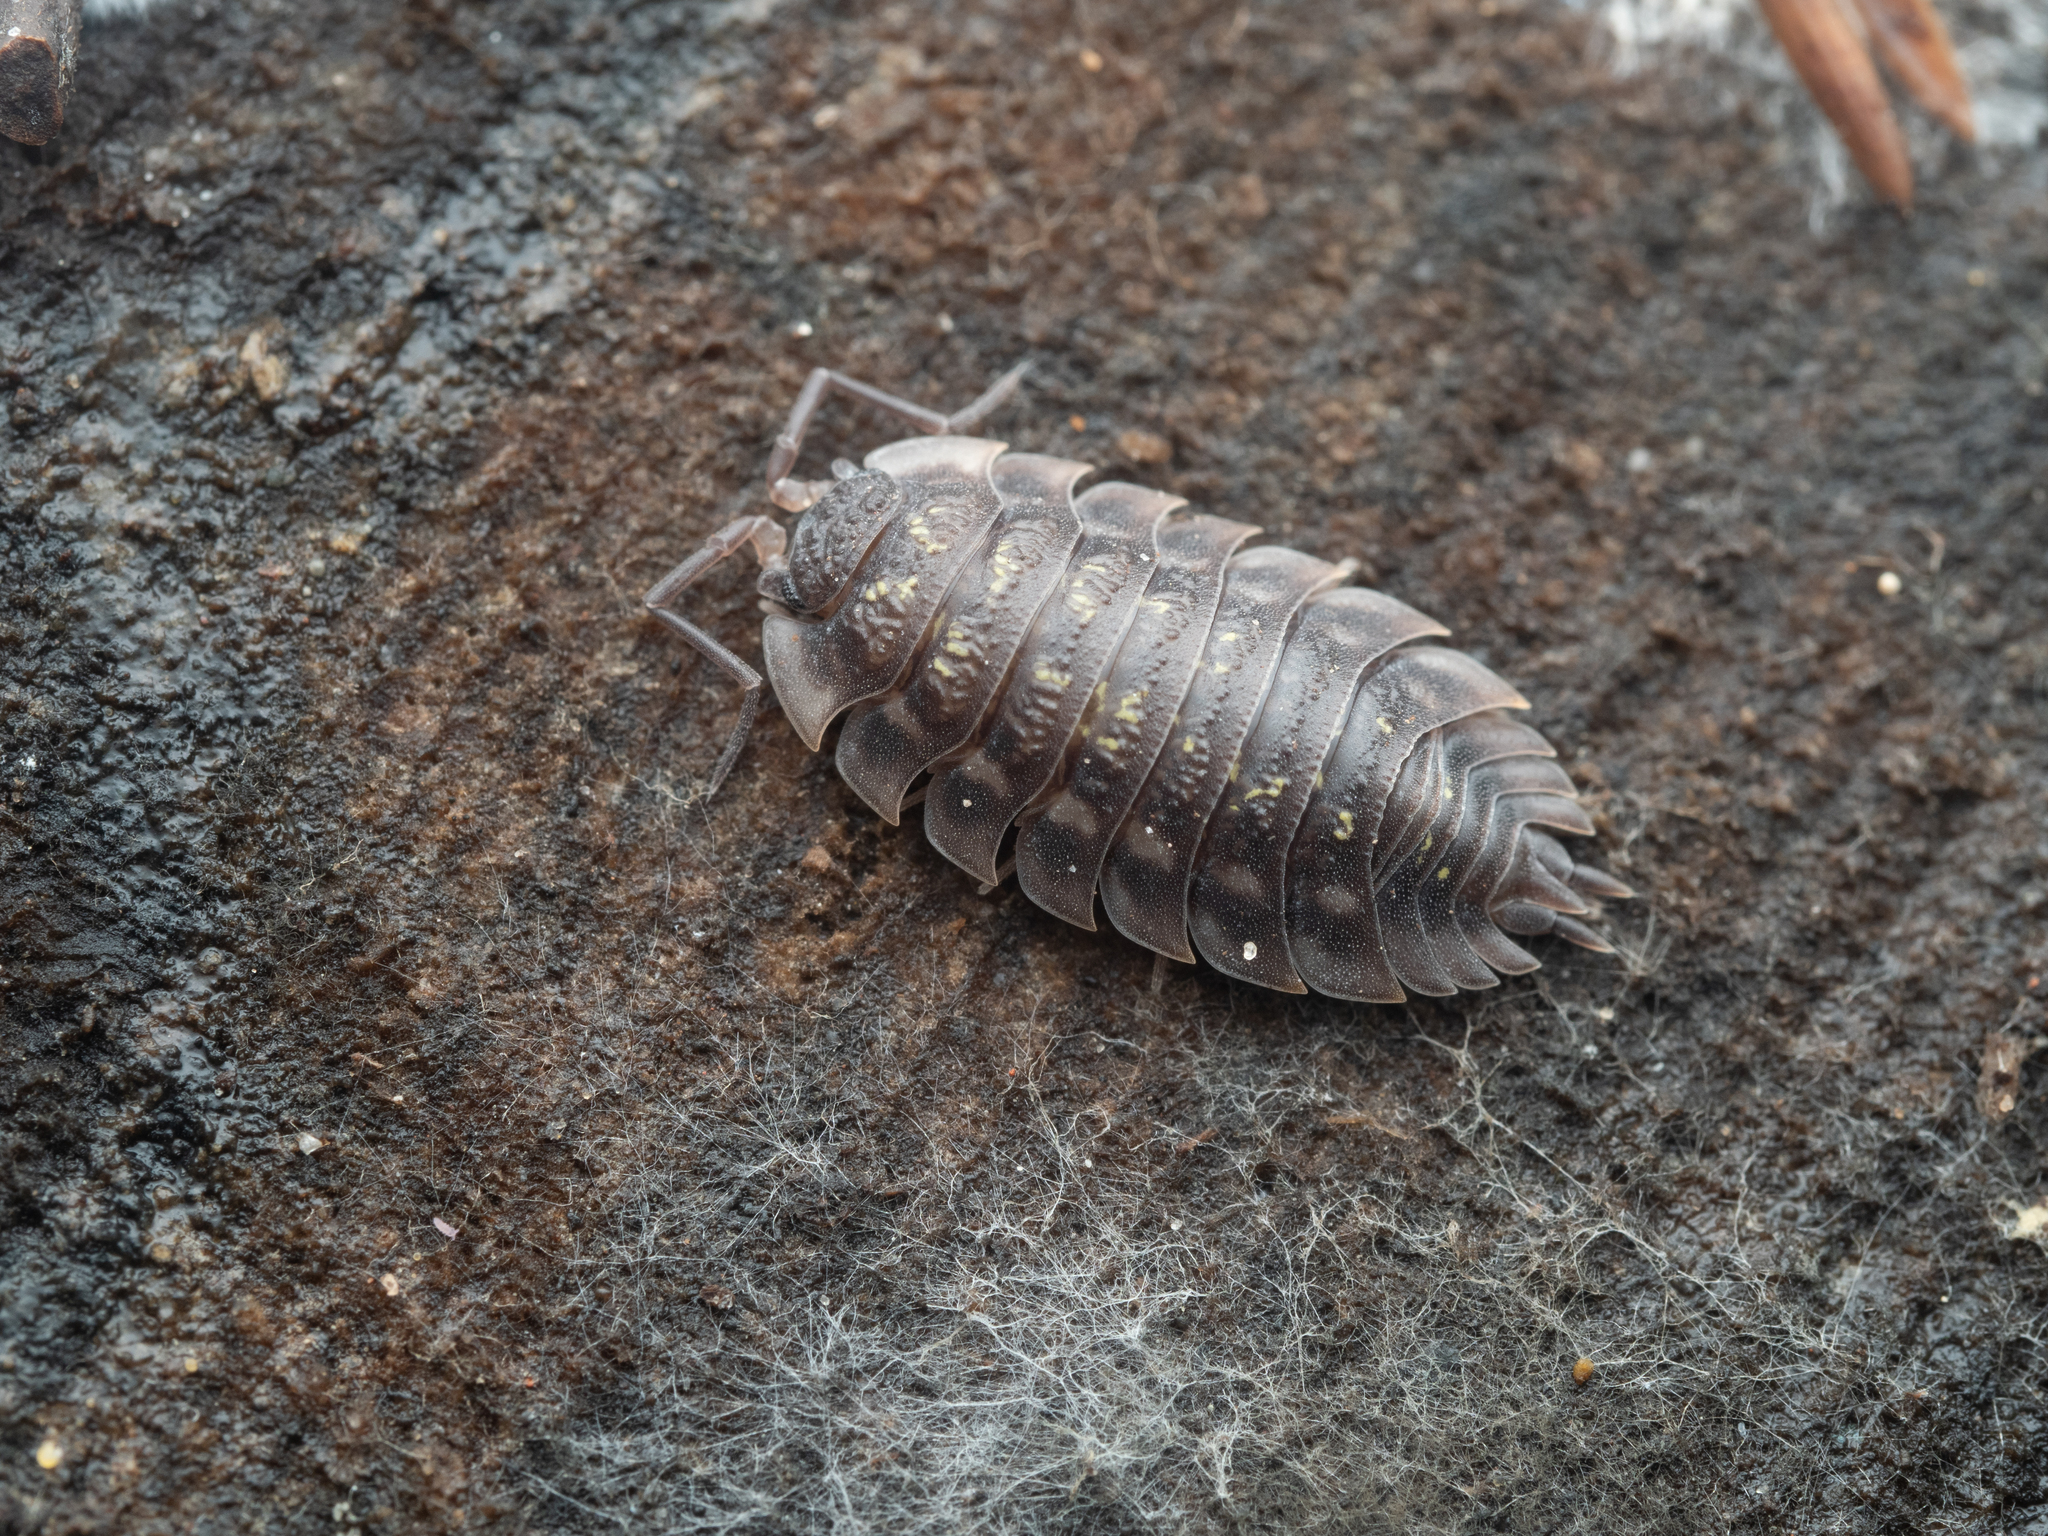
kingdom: Animalia
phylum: Arthropoda
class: Malacostraca
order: Isopoda
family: Oniscidae
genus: Oniscus
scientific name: Oniscus asellus
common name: Common shiny woodlouse
